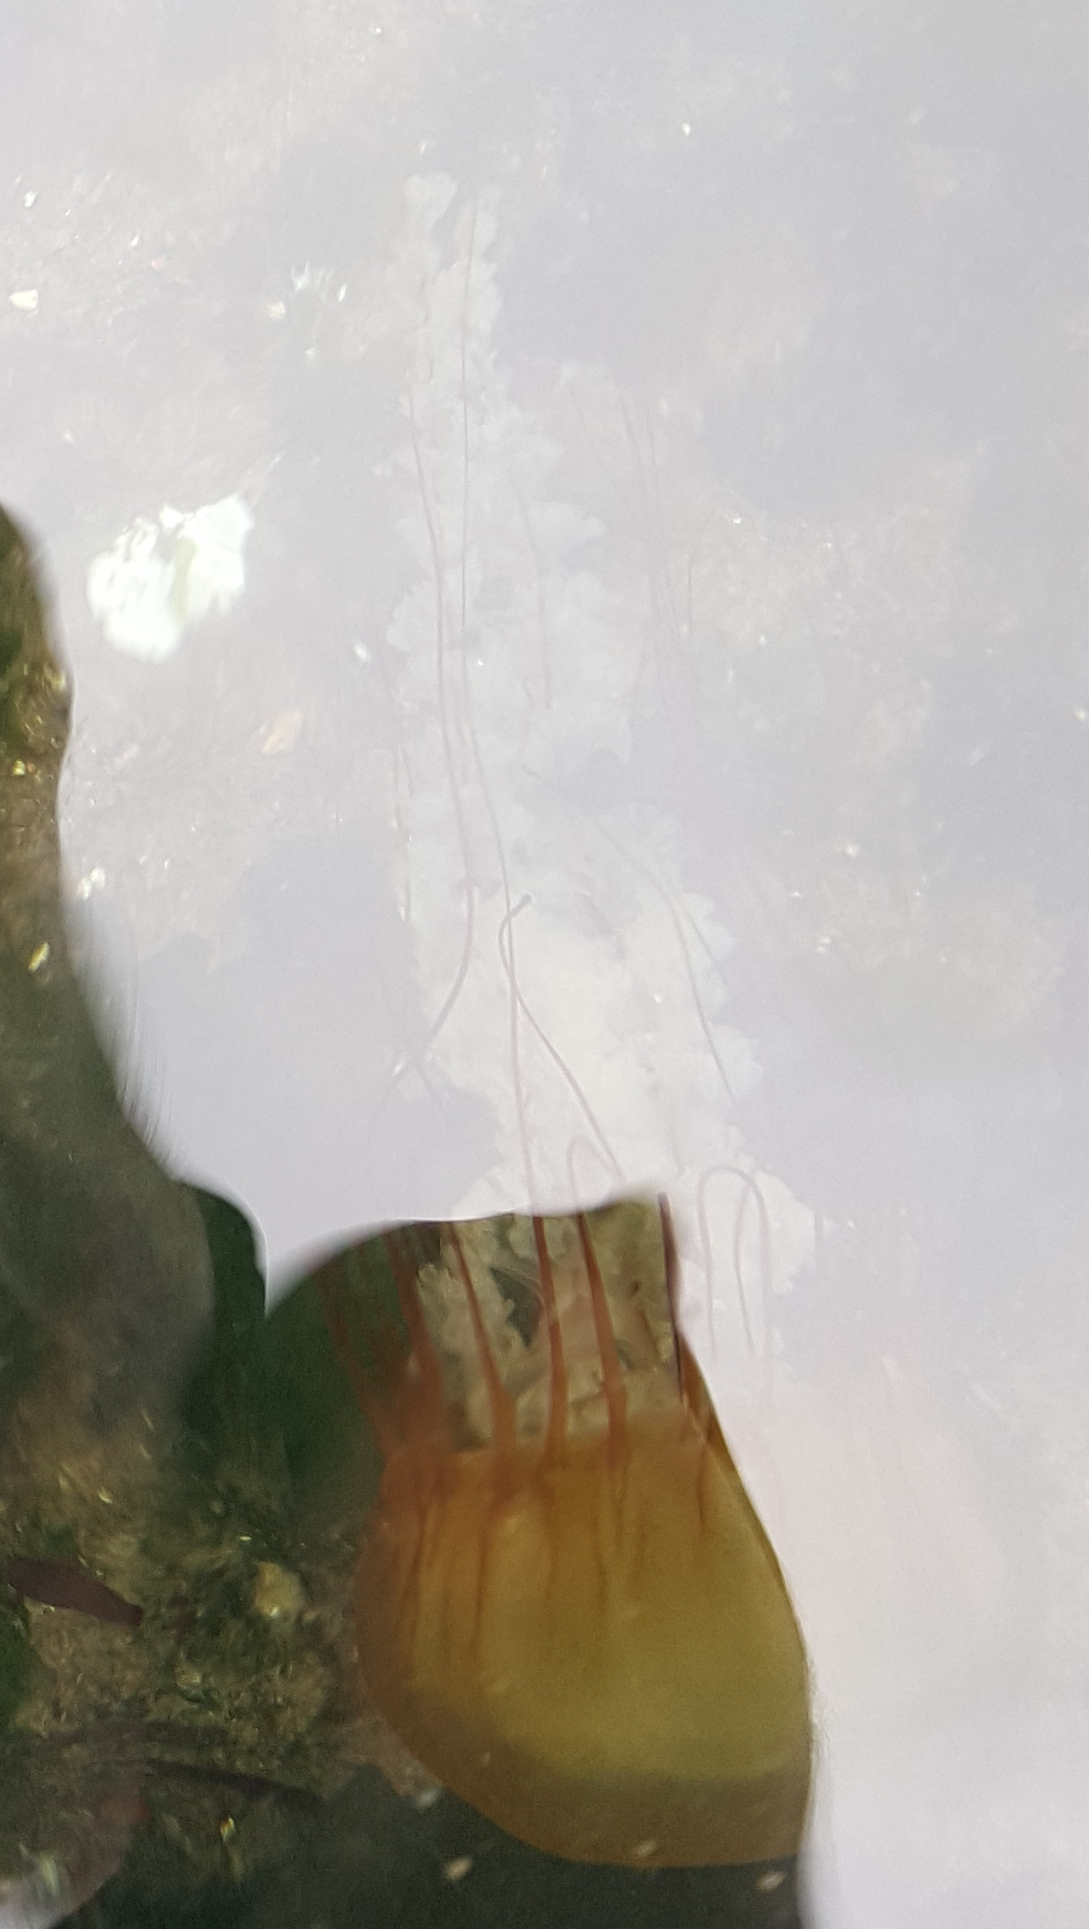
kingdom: Animalia
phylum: Cnidaria
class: Scyphozoa
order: Semaeostomeae
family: Pelagiidae
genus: Chrysaora
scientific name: Chrysaora fuscescens
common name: Sea nettle
